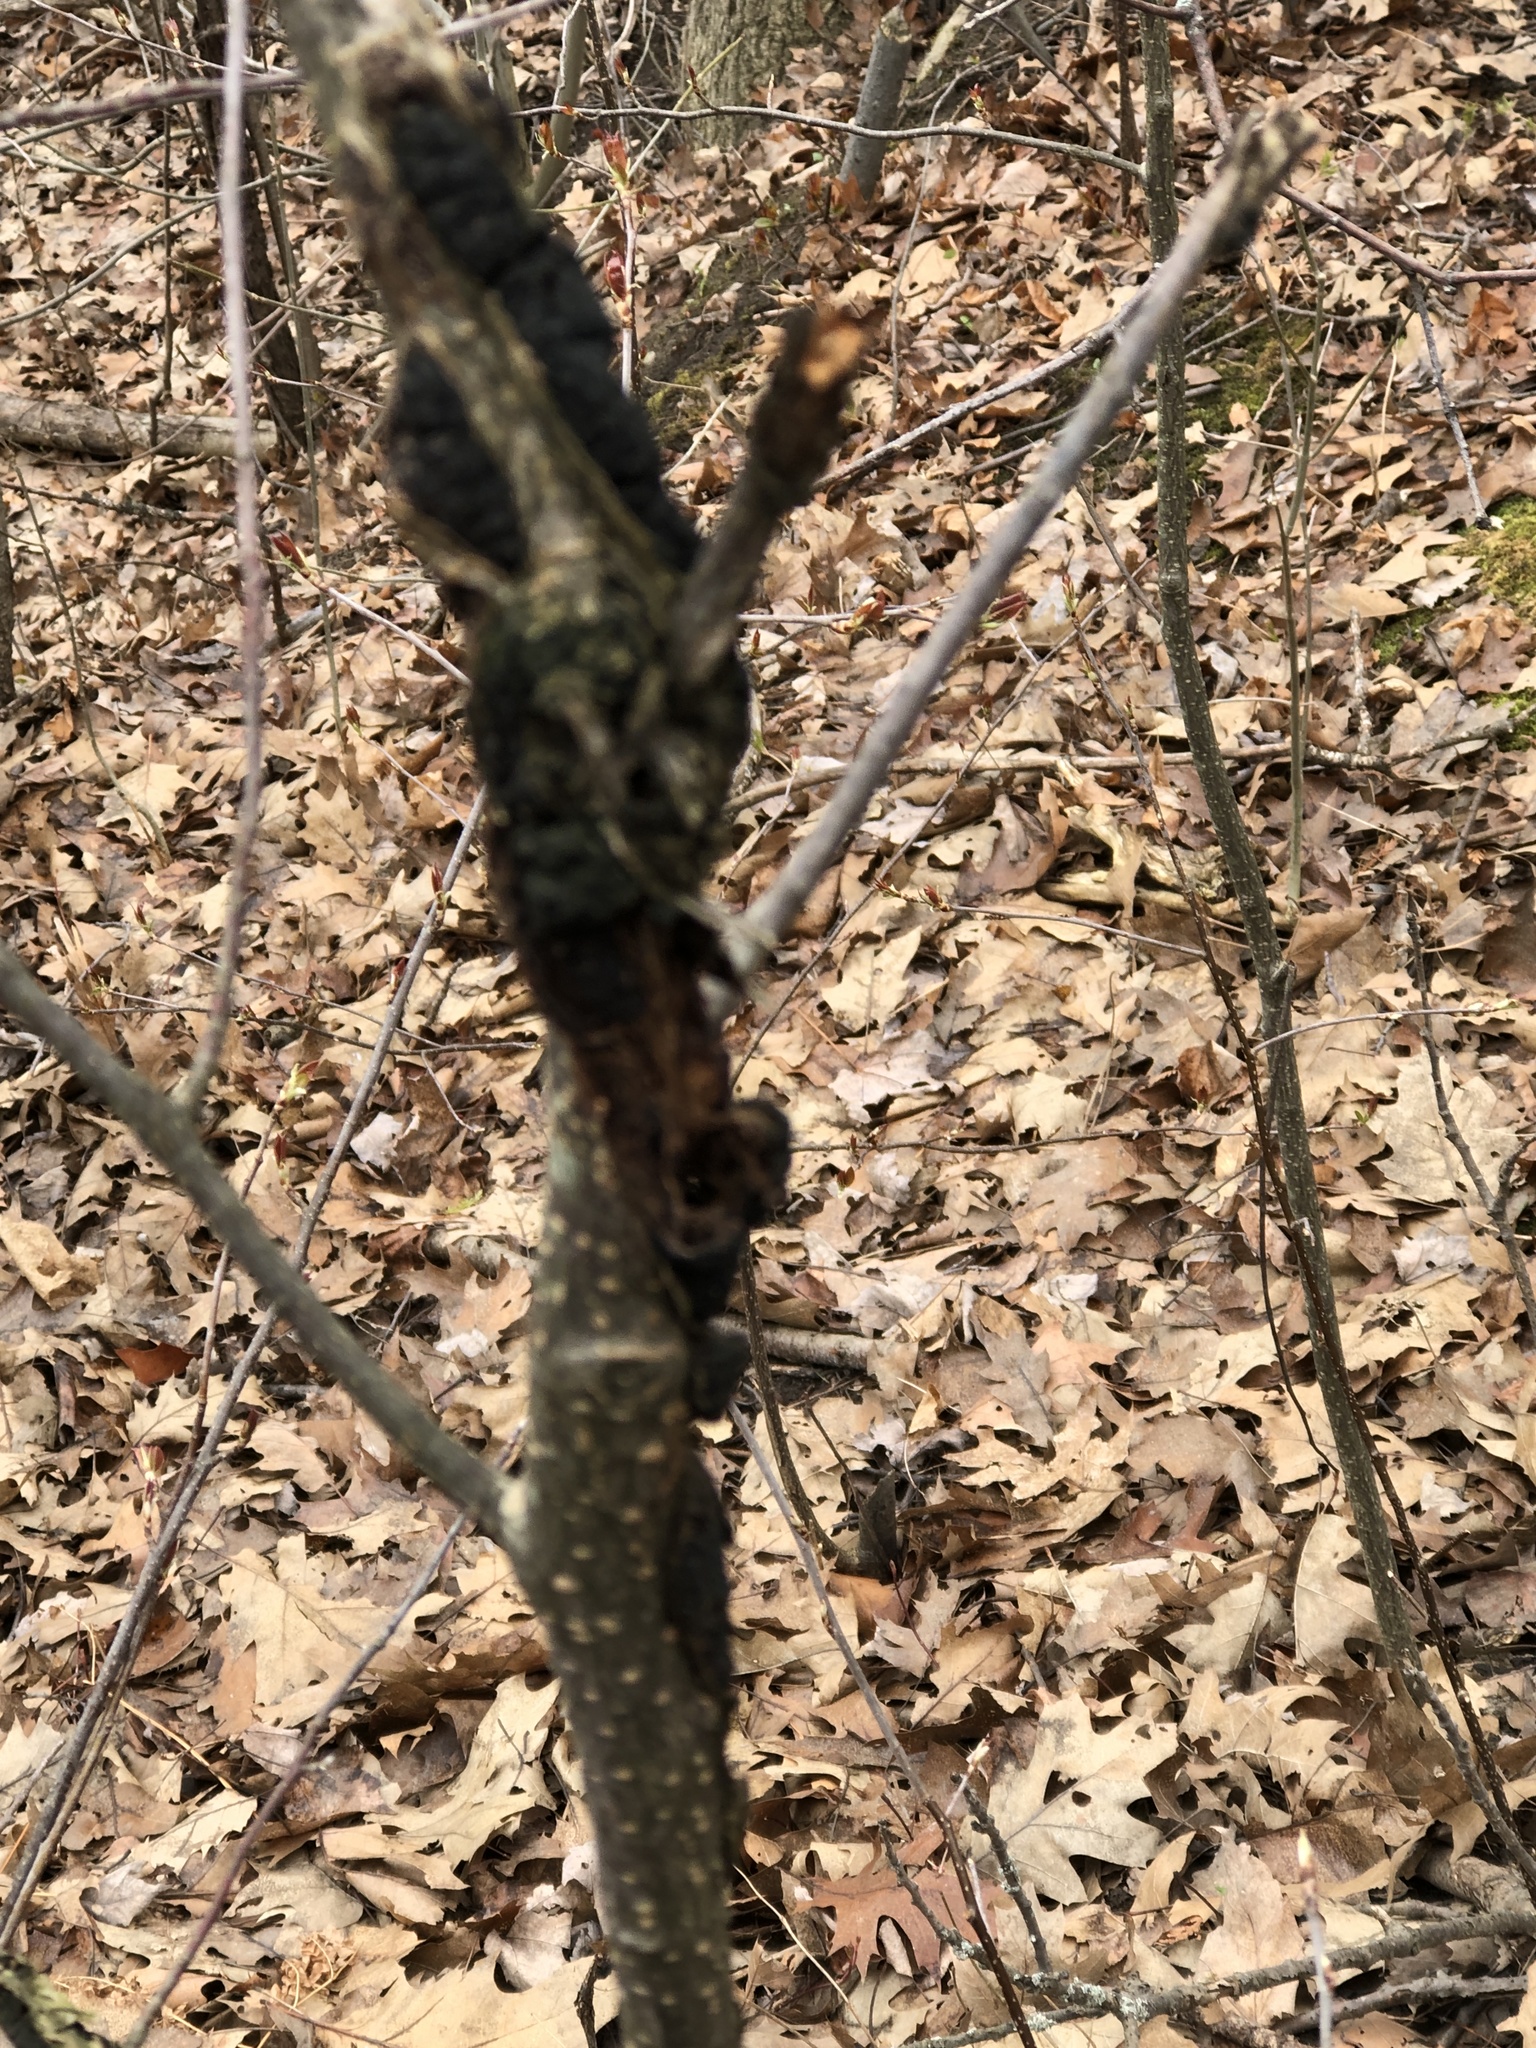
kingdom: Fungi
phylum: Ascomycota
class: Dothideomycetes
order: Venturiales
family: Venturiaceae
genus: Apiosporina
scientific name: Apiosporina morbosa
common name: Black knot
